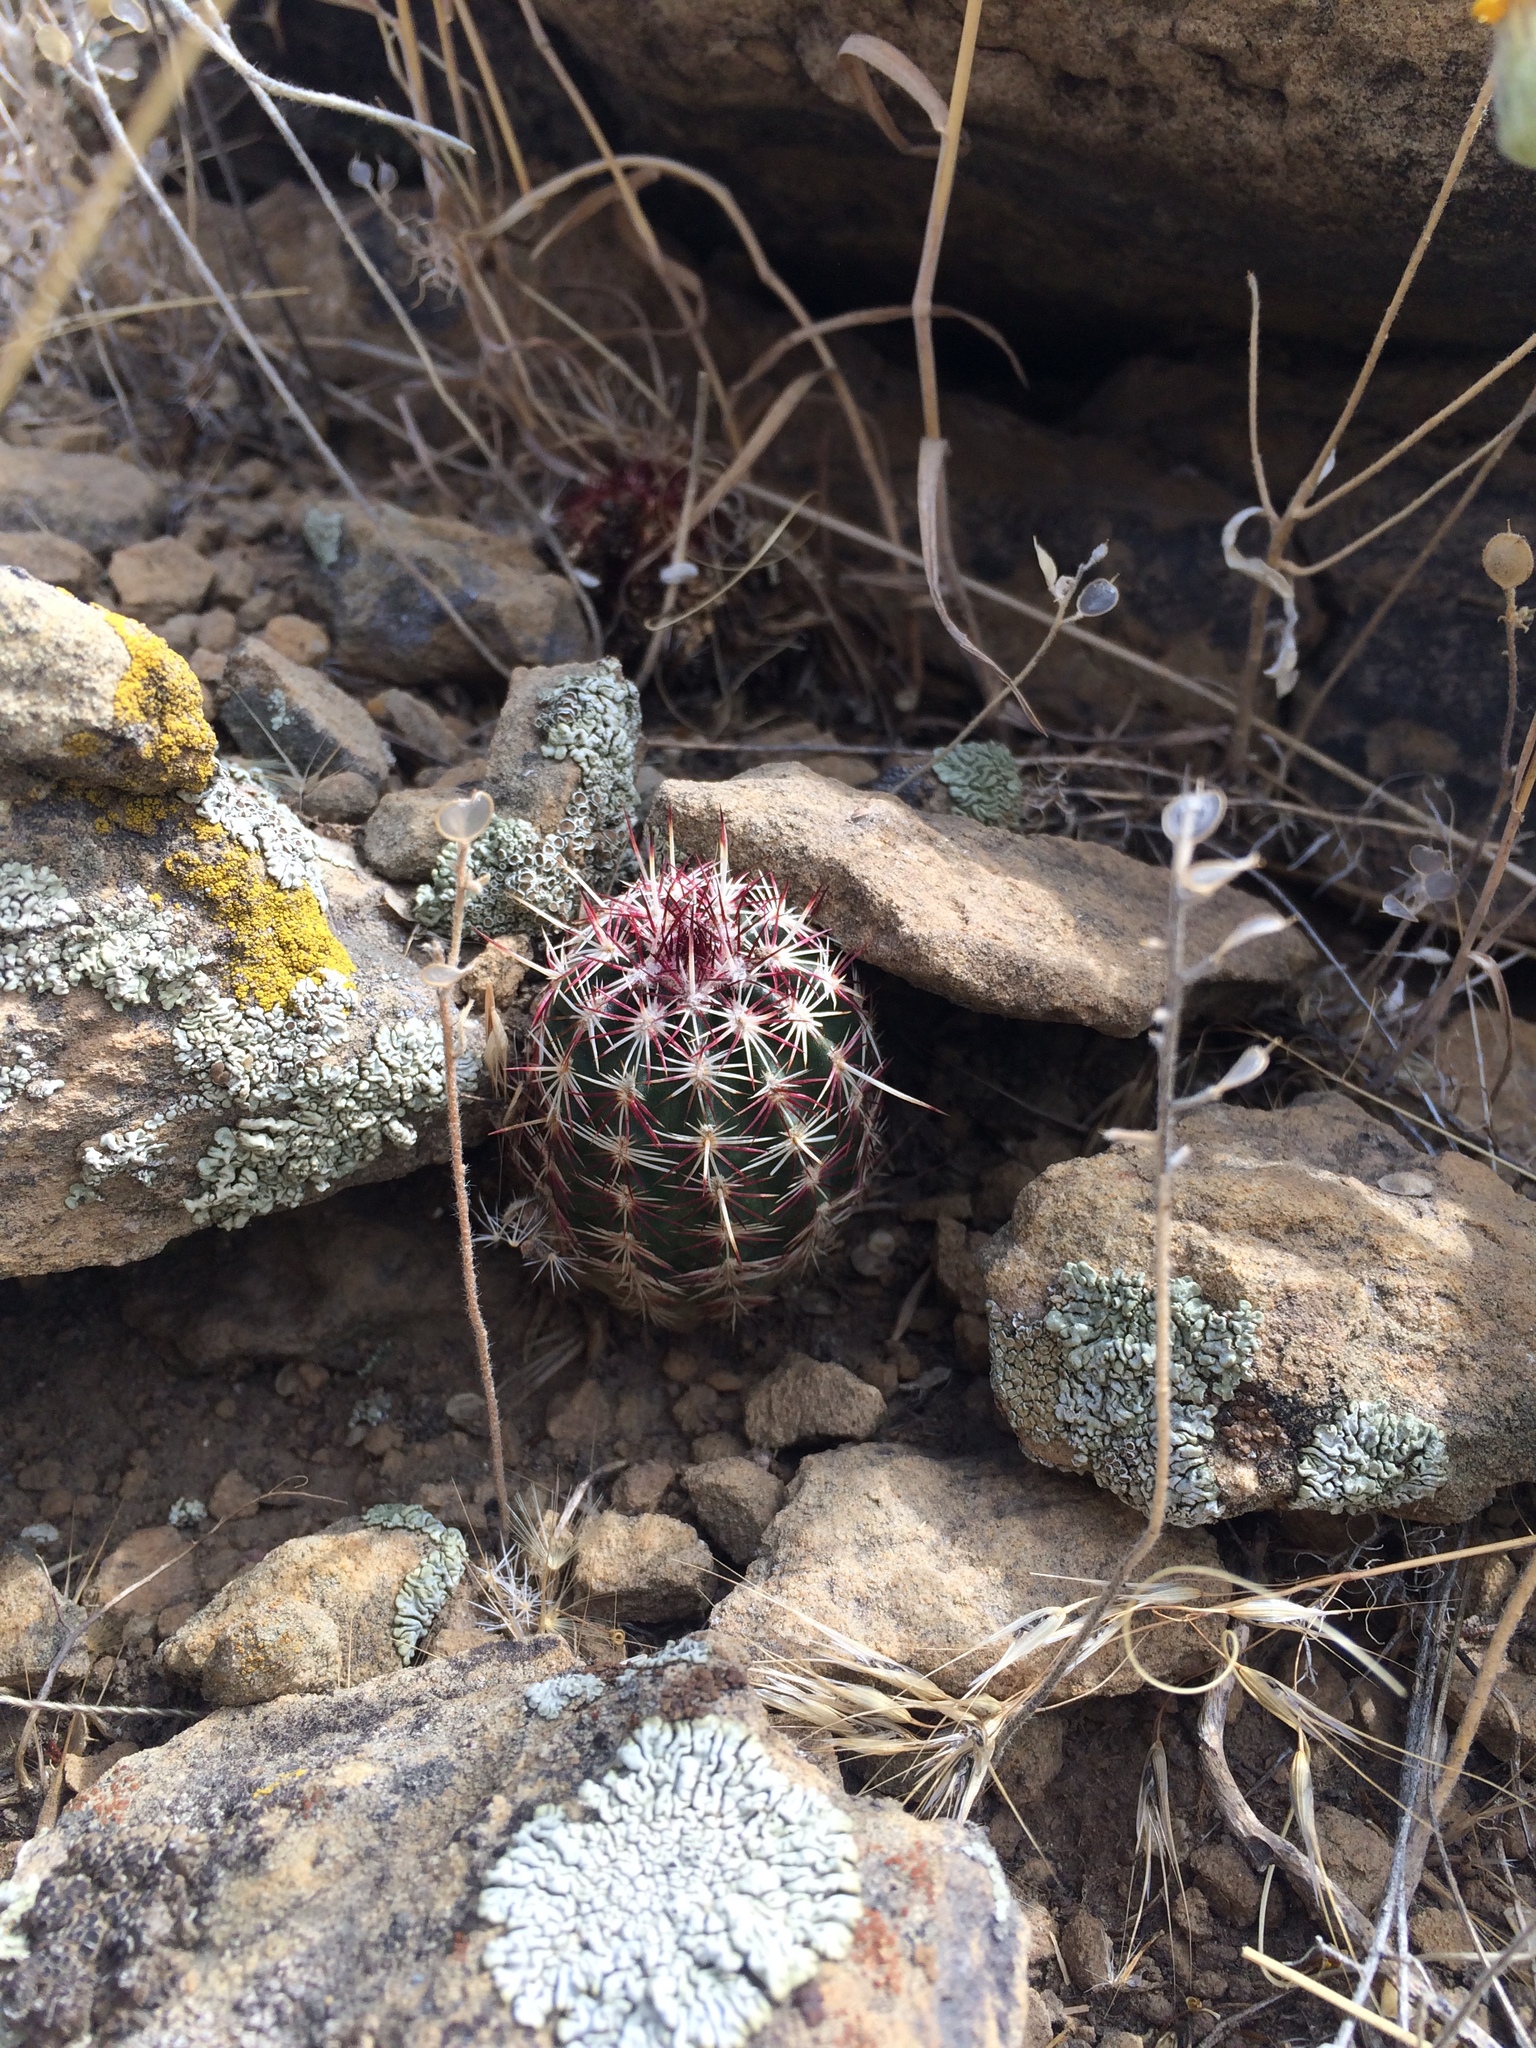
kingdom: Plantae
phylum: Tracheophyta
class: Magnoliopsida
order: Caryophyllales
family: Cactaceae
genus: Echinocereus
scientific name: Echinocereus viridiflorus
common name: Nylon hedgehog cactus
